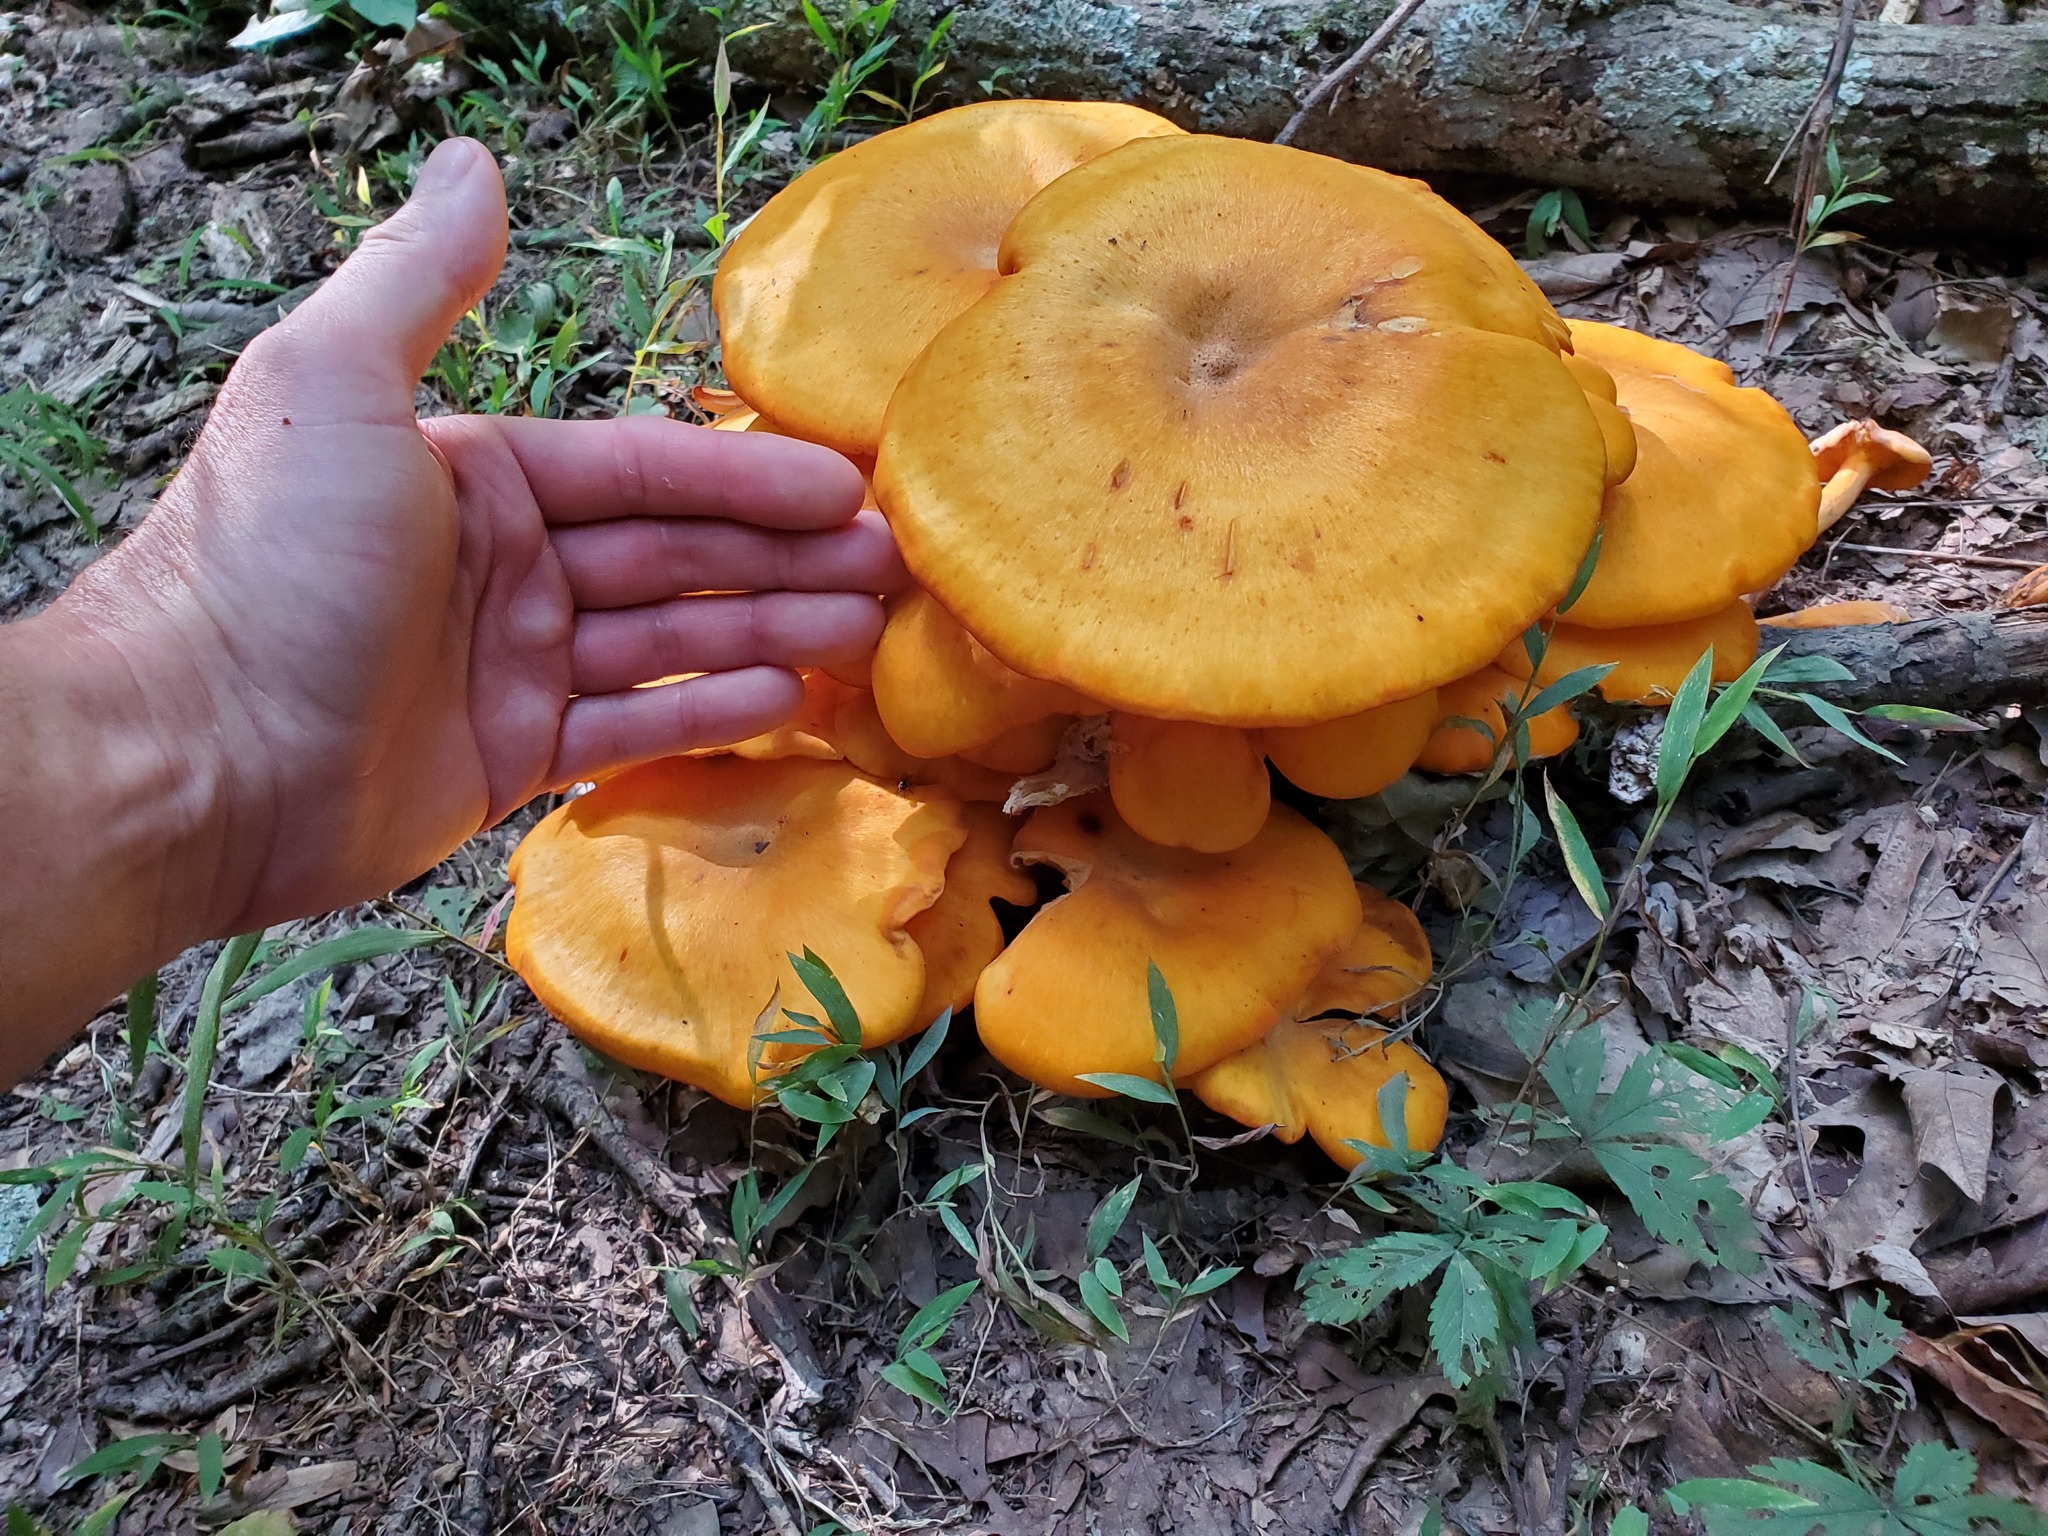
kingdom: Fungi
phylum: Basidiomycota
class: Agaricomycetes
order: Agaricales
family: Omphalotaceae
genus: Omphalotus
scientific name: Omphalotus illudens
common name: Jack o lantern
